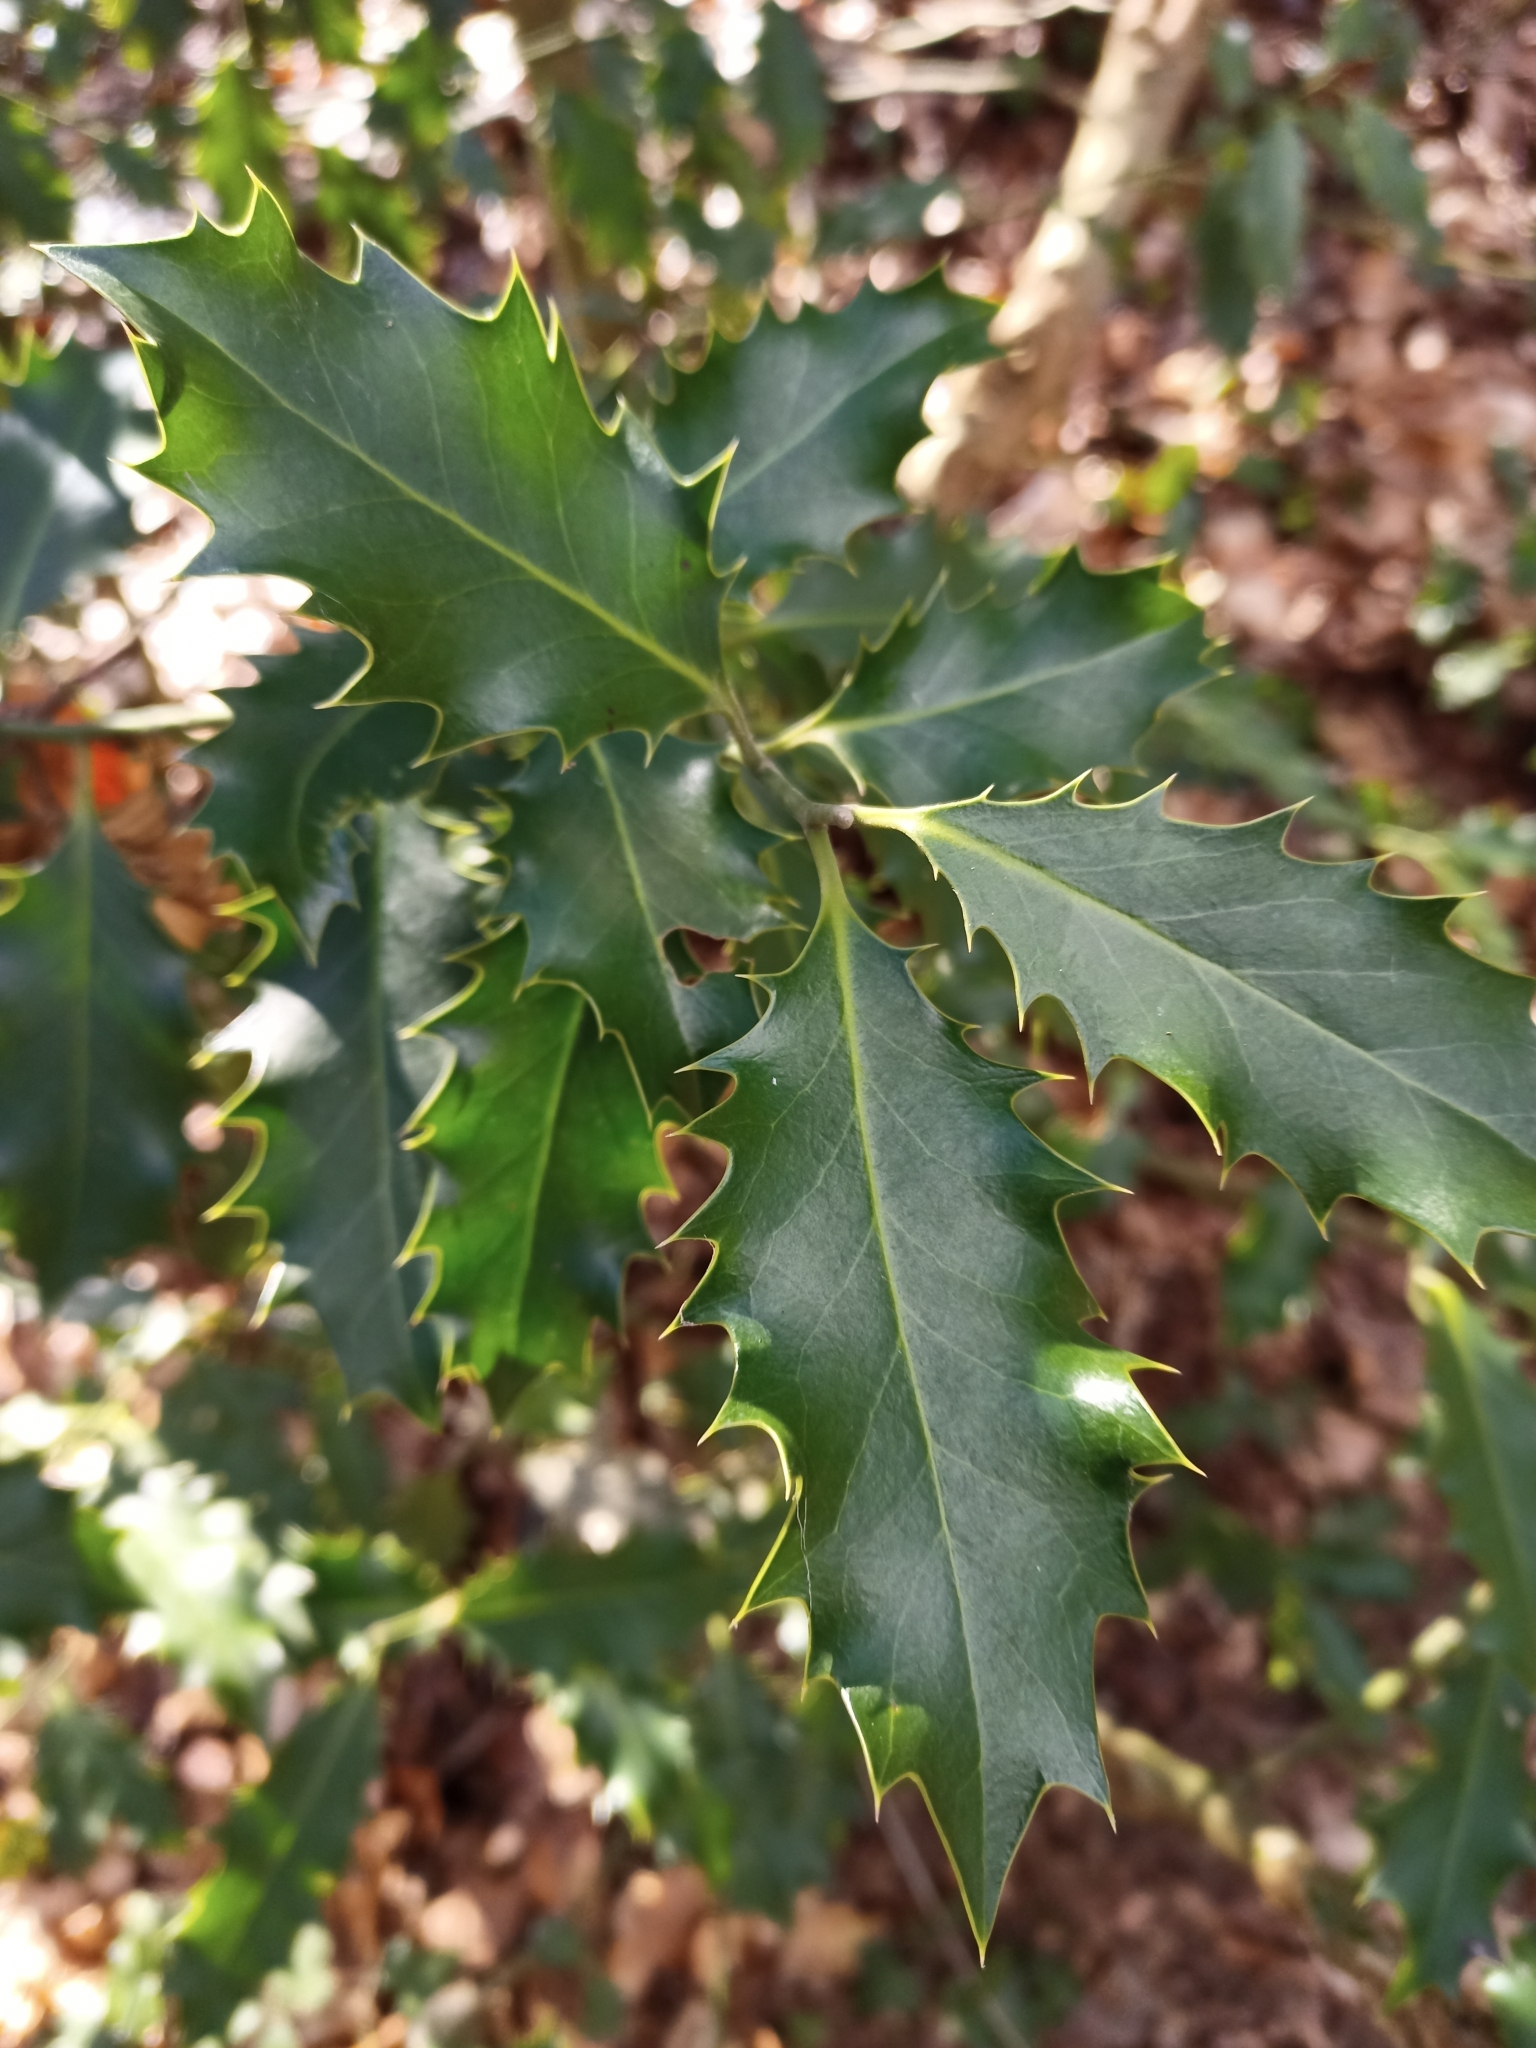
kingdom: Plantae
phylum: Tracheophyta
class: Magnoliopsida
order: Aquifoliales
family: Aquifoliaceae
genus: Ilex
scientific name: Ilex aquifolium
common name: English holly
